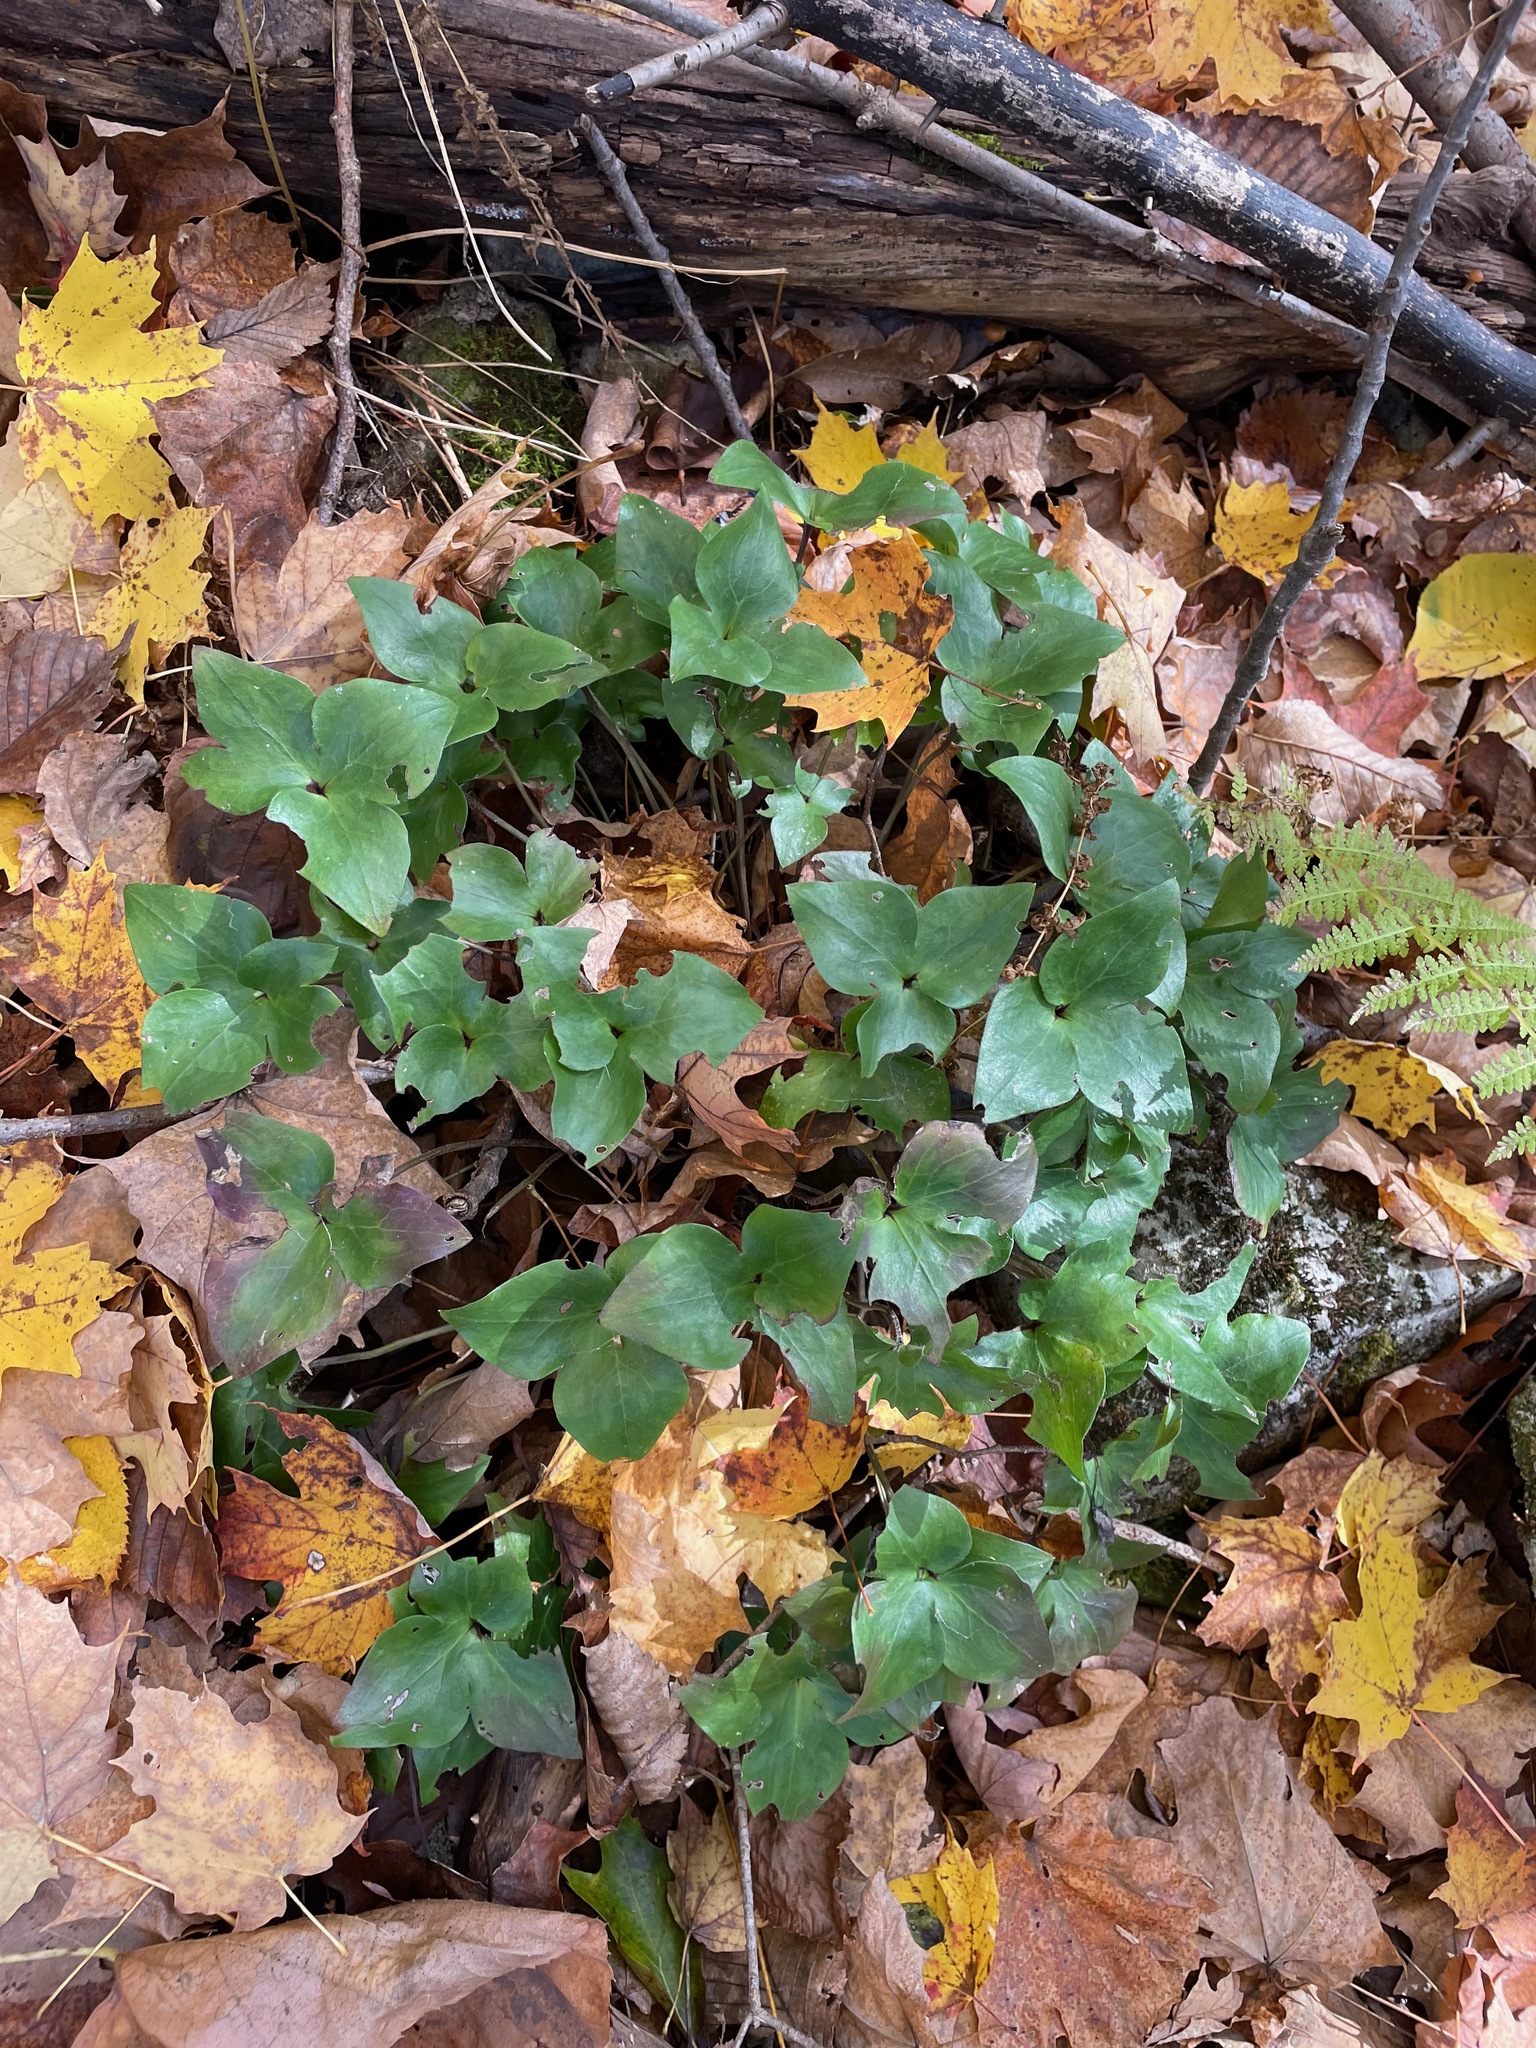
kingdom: Plantae
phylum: Tracheophyta
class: Magnoliopsida
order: Ranunculales
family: Ranunculaceae
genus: Hepatica
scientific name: Hepatica acutiloba
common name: Sharp-lobed hepatica
